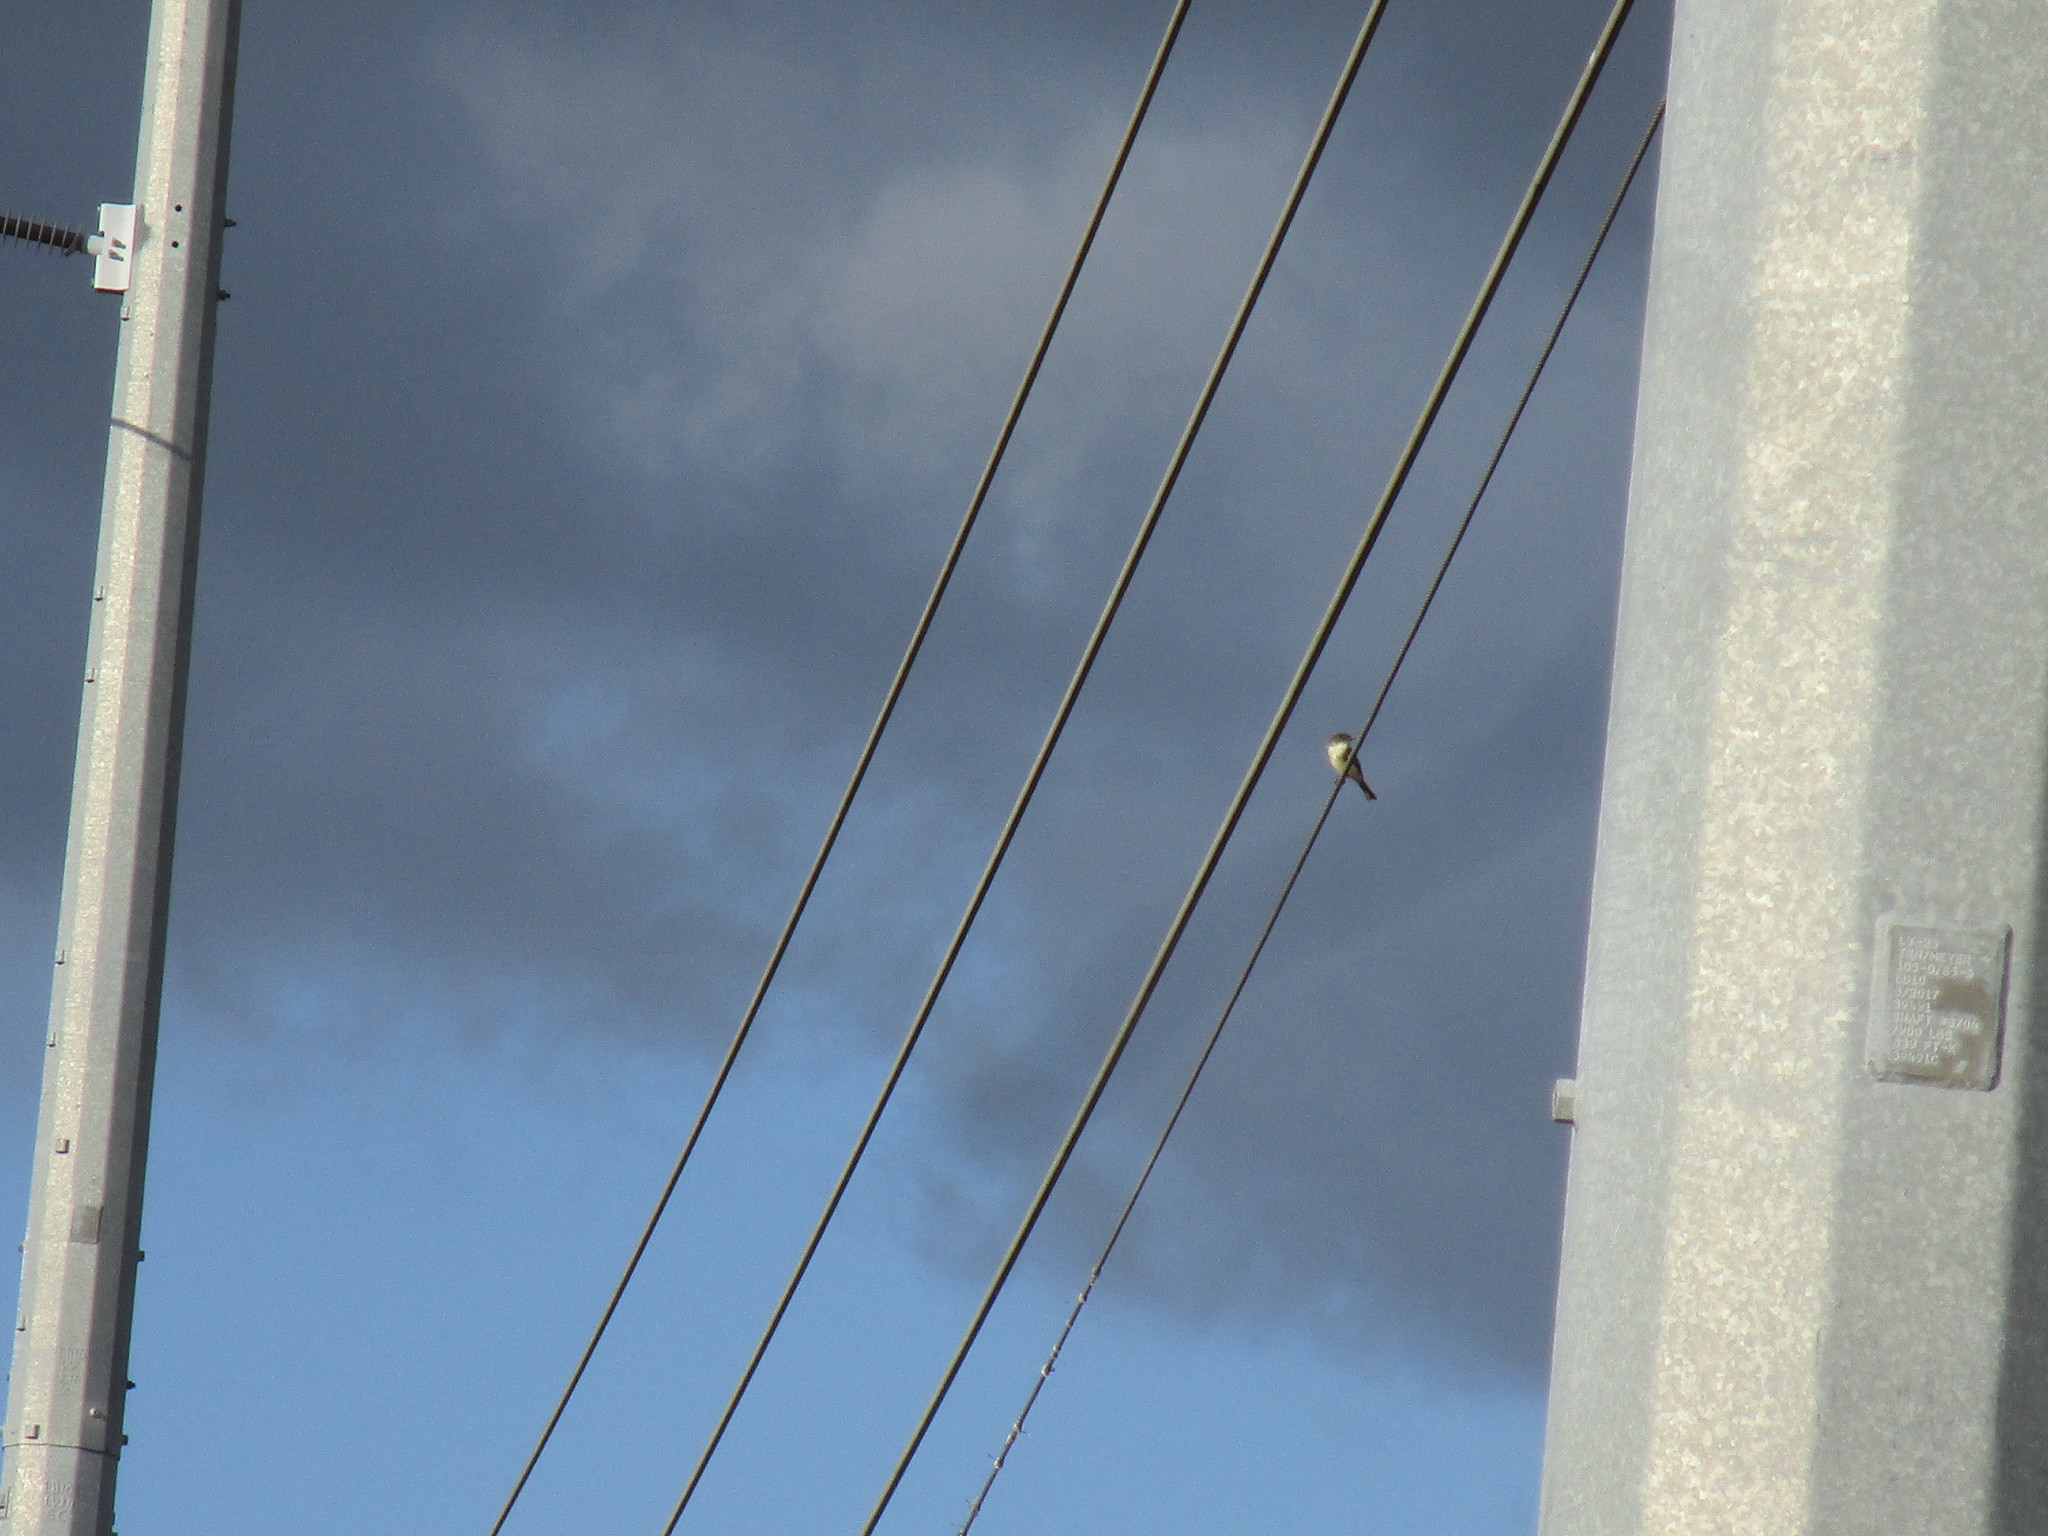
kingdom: Animalia
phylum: Chordata
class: Aves
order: Passeriformes
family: Tyrannidae
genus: Sayornis
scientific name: Sayornis phoebe
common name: Eastern phoebe
